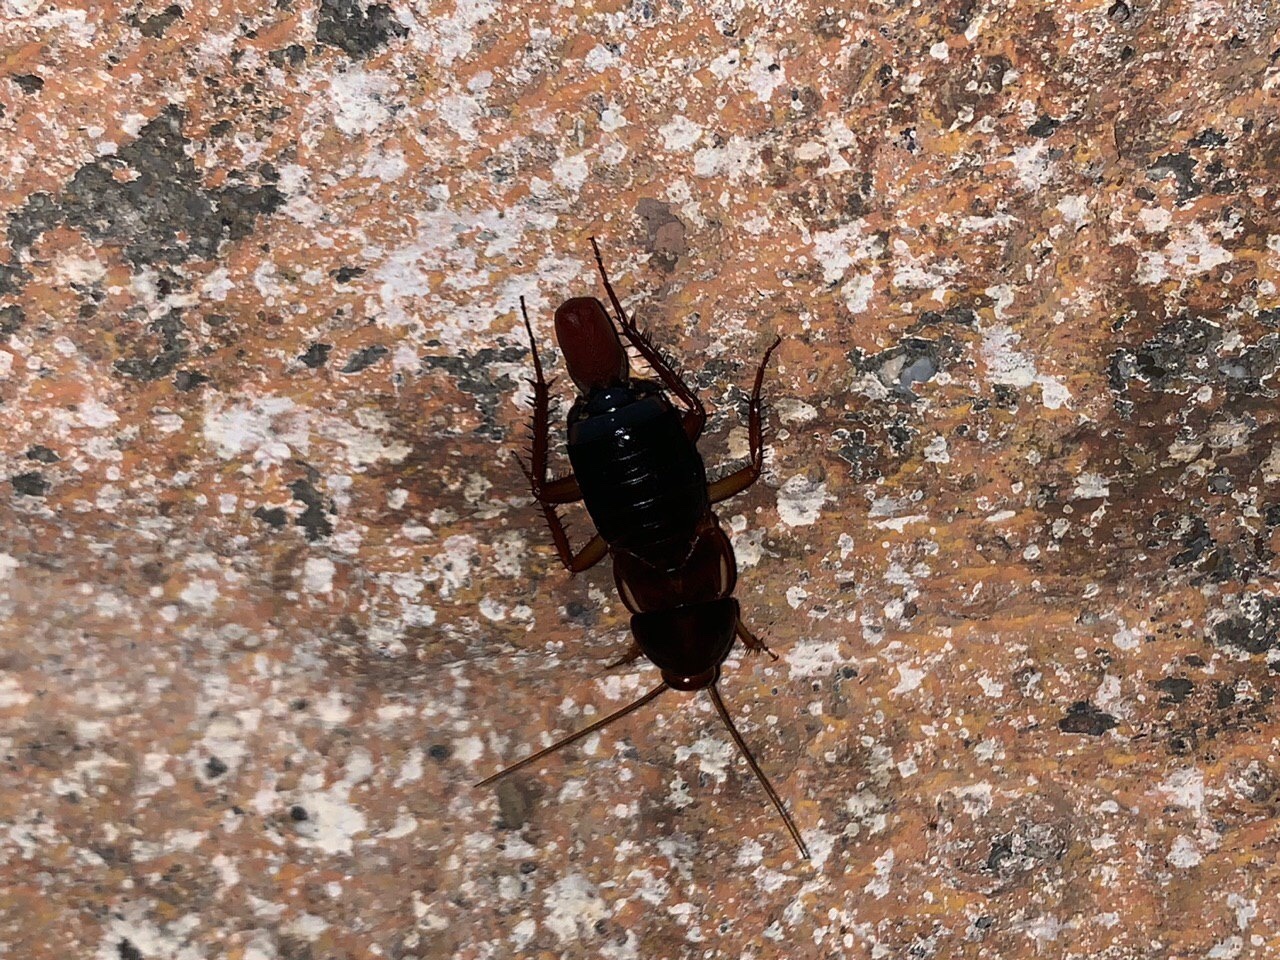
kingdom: Animalia
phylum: Arthropoda
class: Insecta
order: Blattodea
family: Blattidae
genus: Periplaneta
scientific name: Periplaneta lateralis
